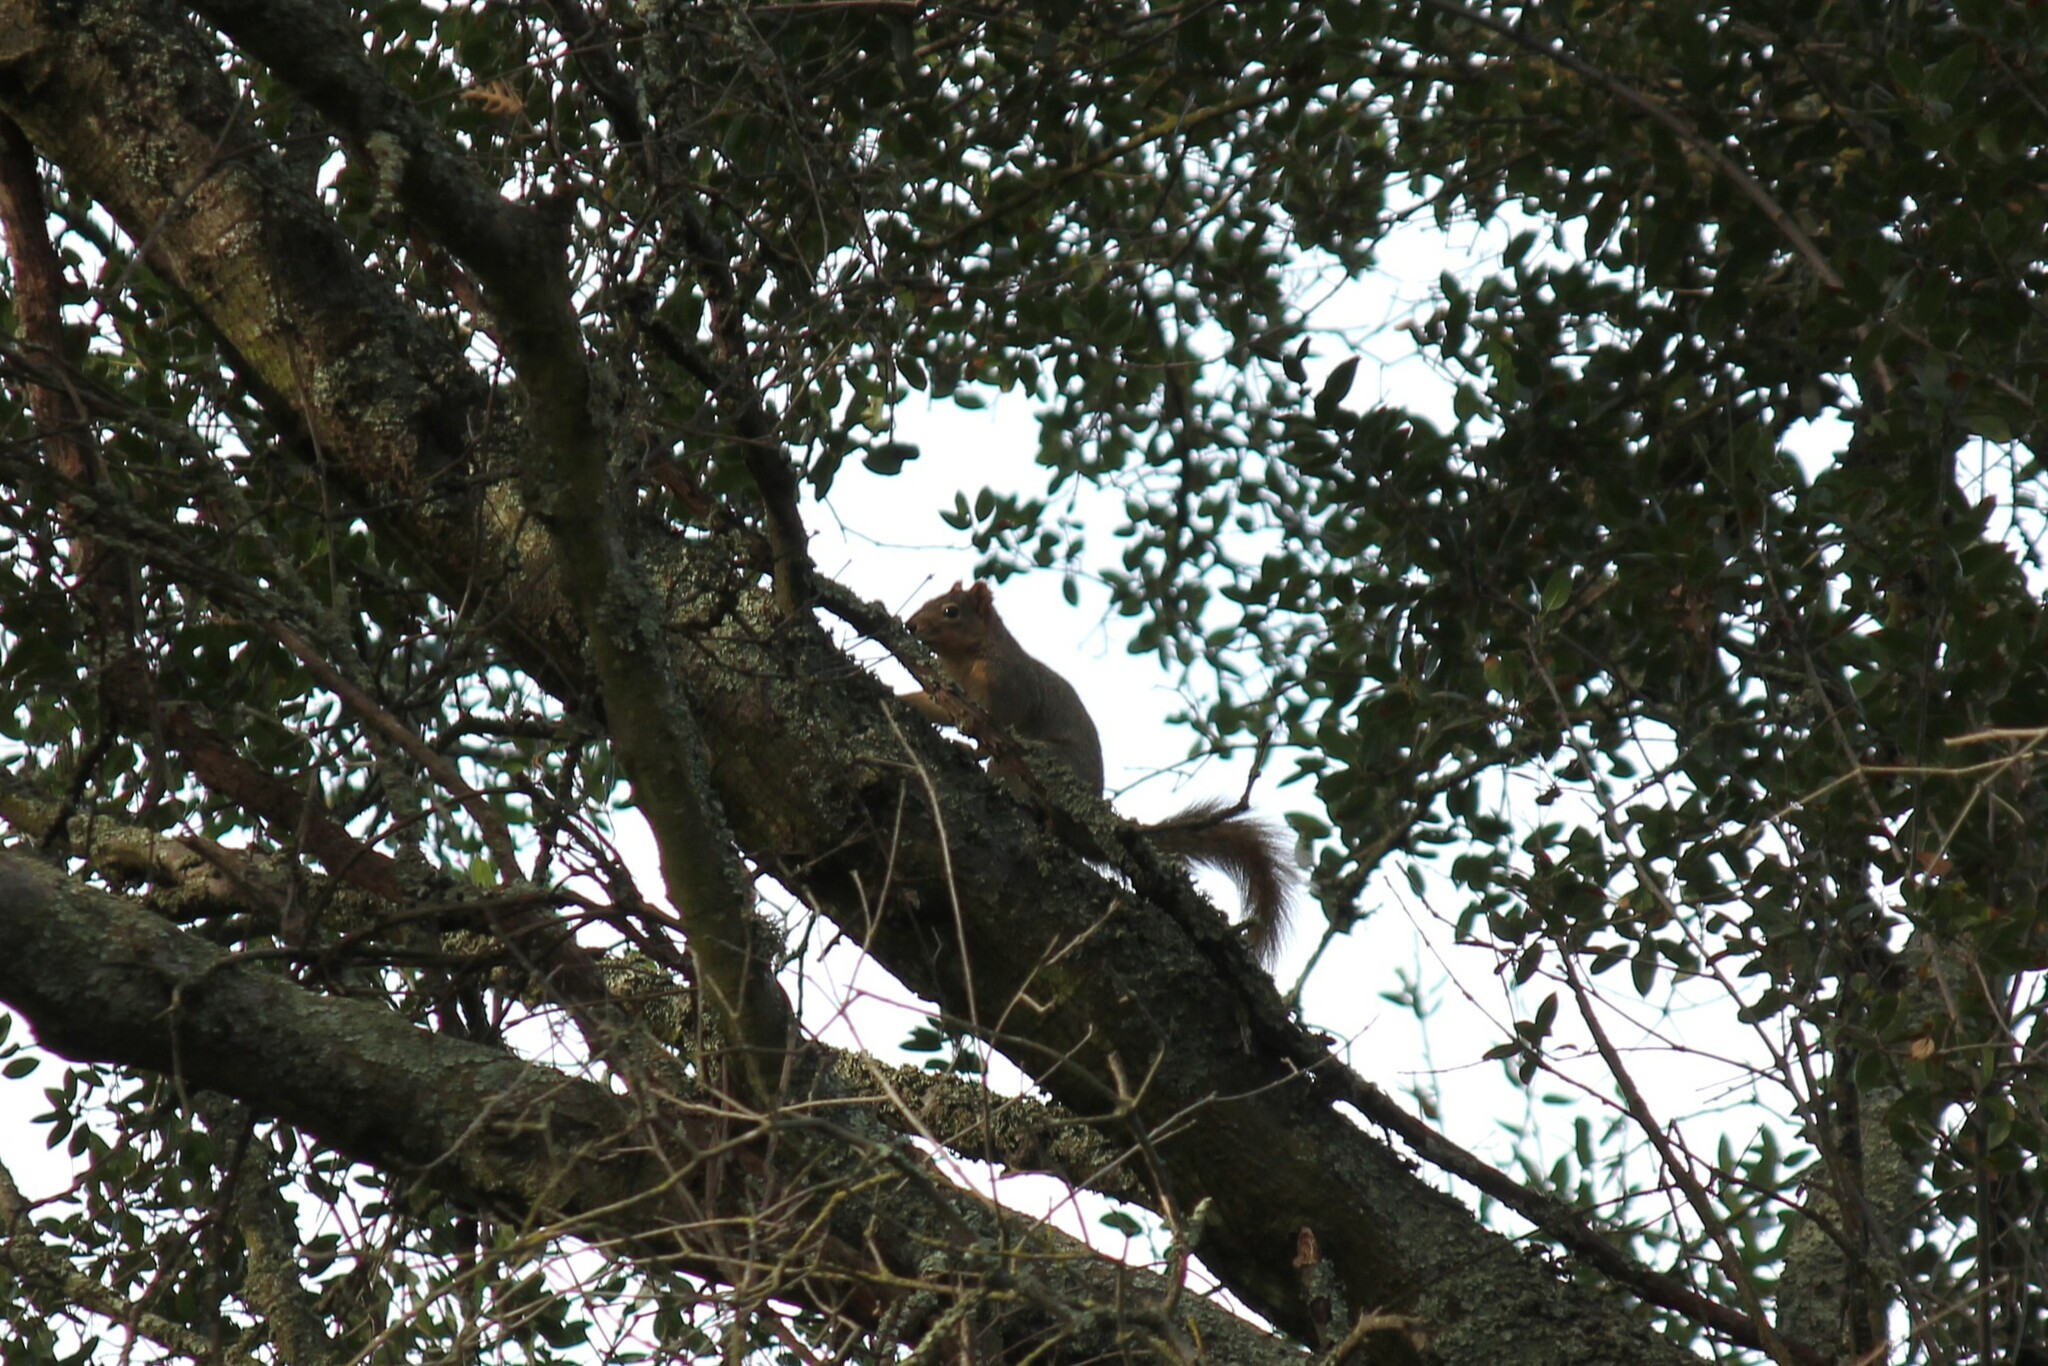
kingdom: Animalia
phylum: Chordata
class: Mammalia
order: Rodentia
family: Sciuridae
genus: Sciurus
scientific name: Sciurus niger
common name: Fox squirrel
